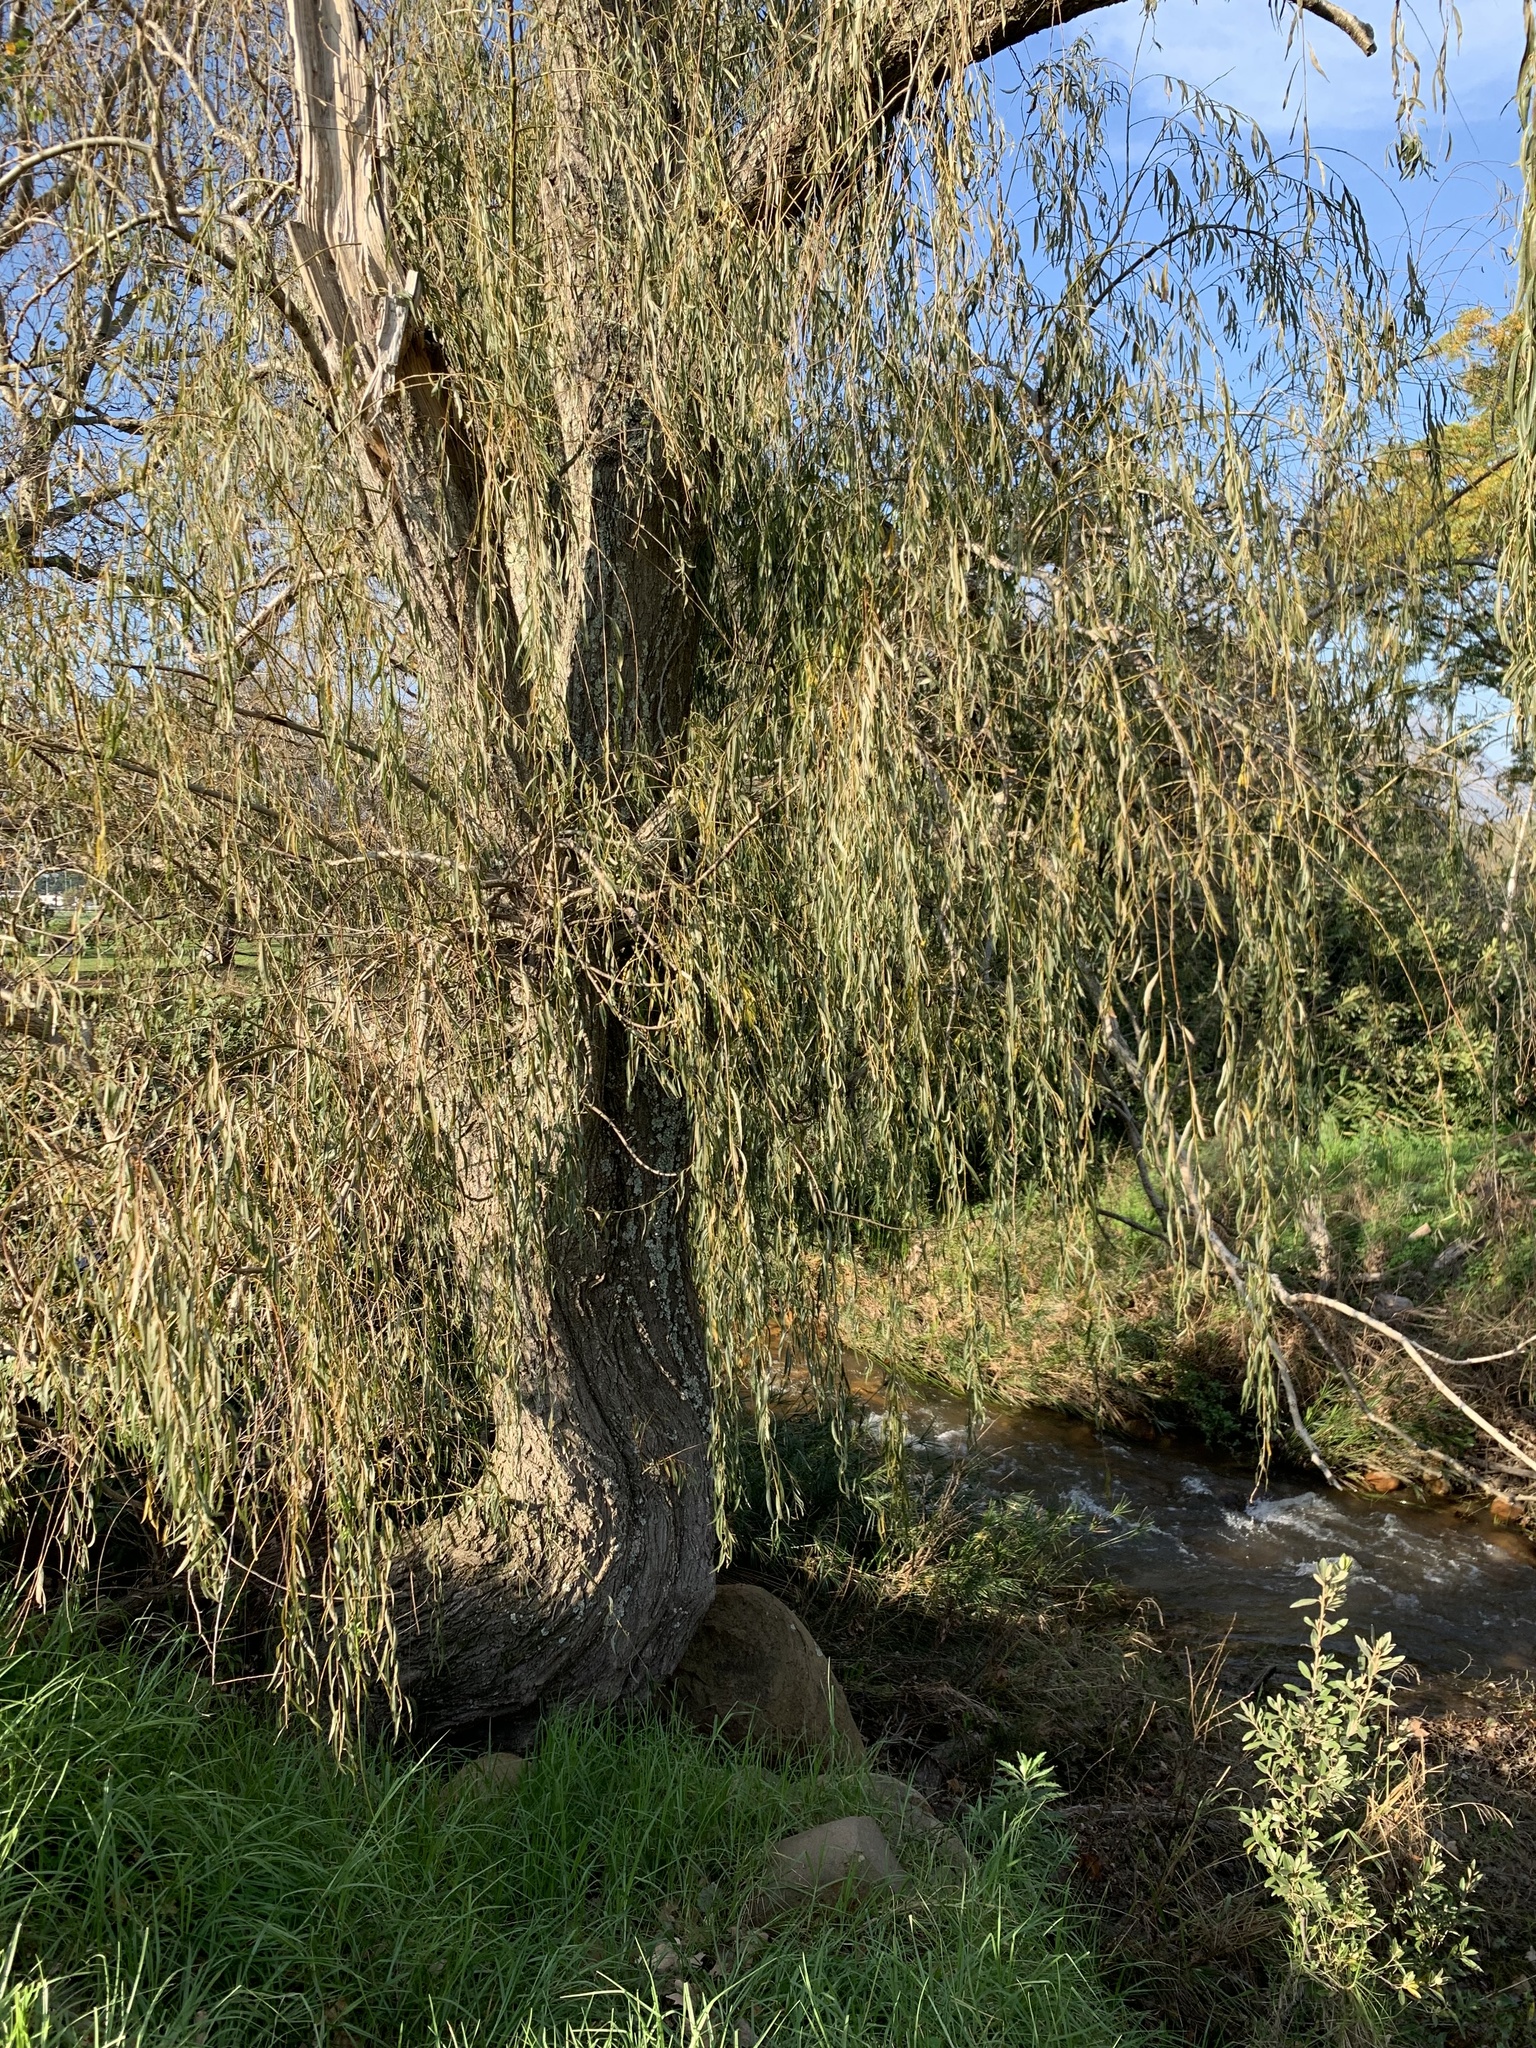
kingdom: Plantae
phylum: Tracheophyta
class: Magnoliopsida
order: Malpighiales
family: Salicaceae
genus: Salix
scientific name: Salix babylonica
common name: Weeping willow
